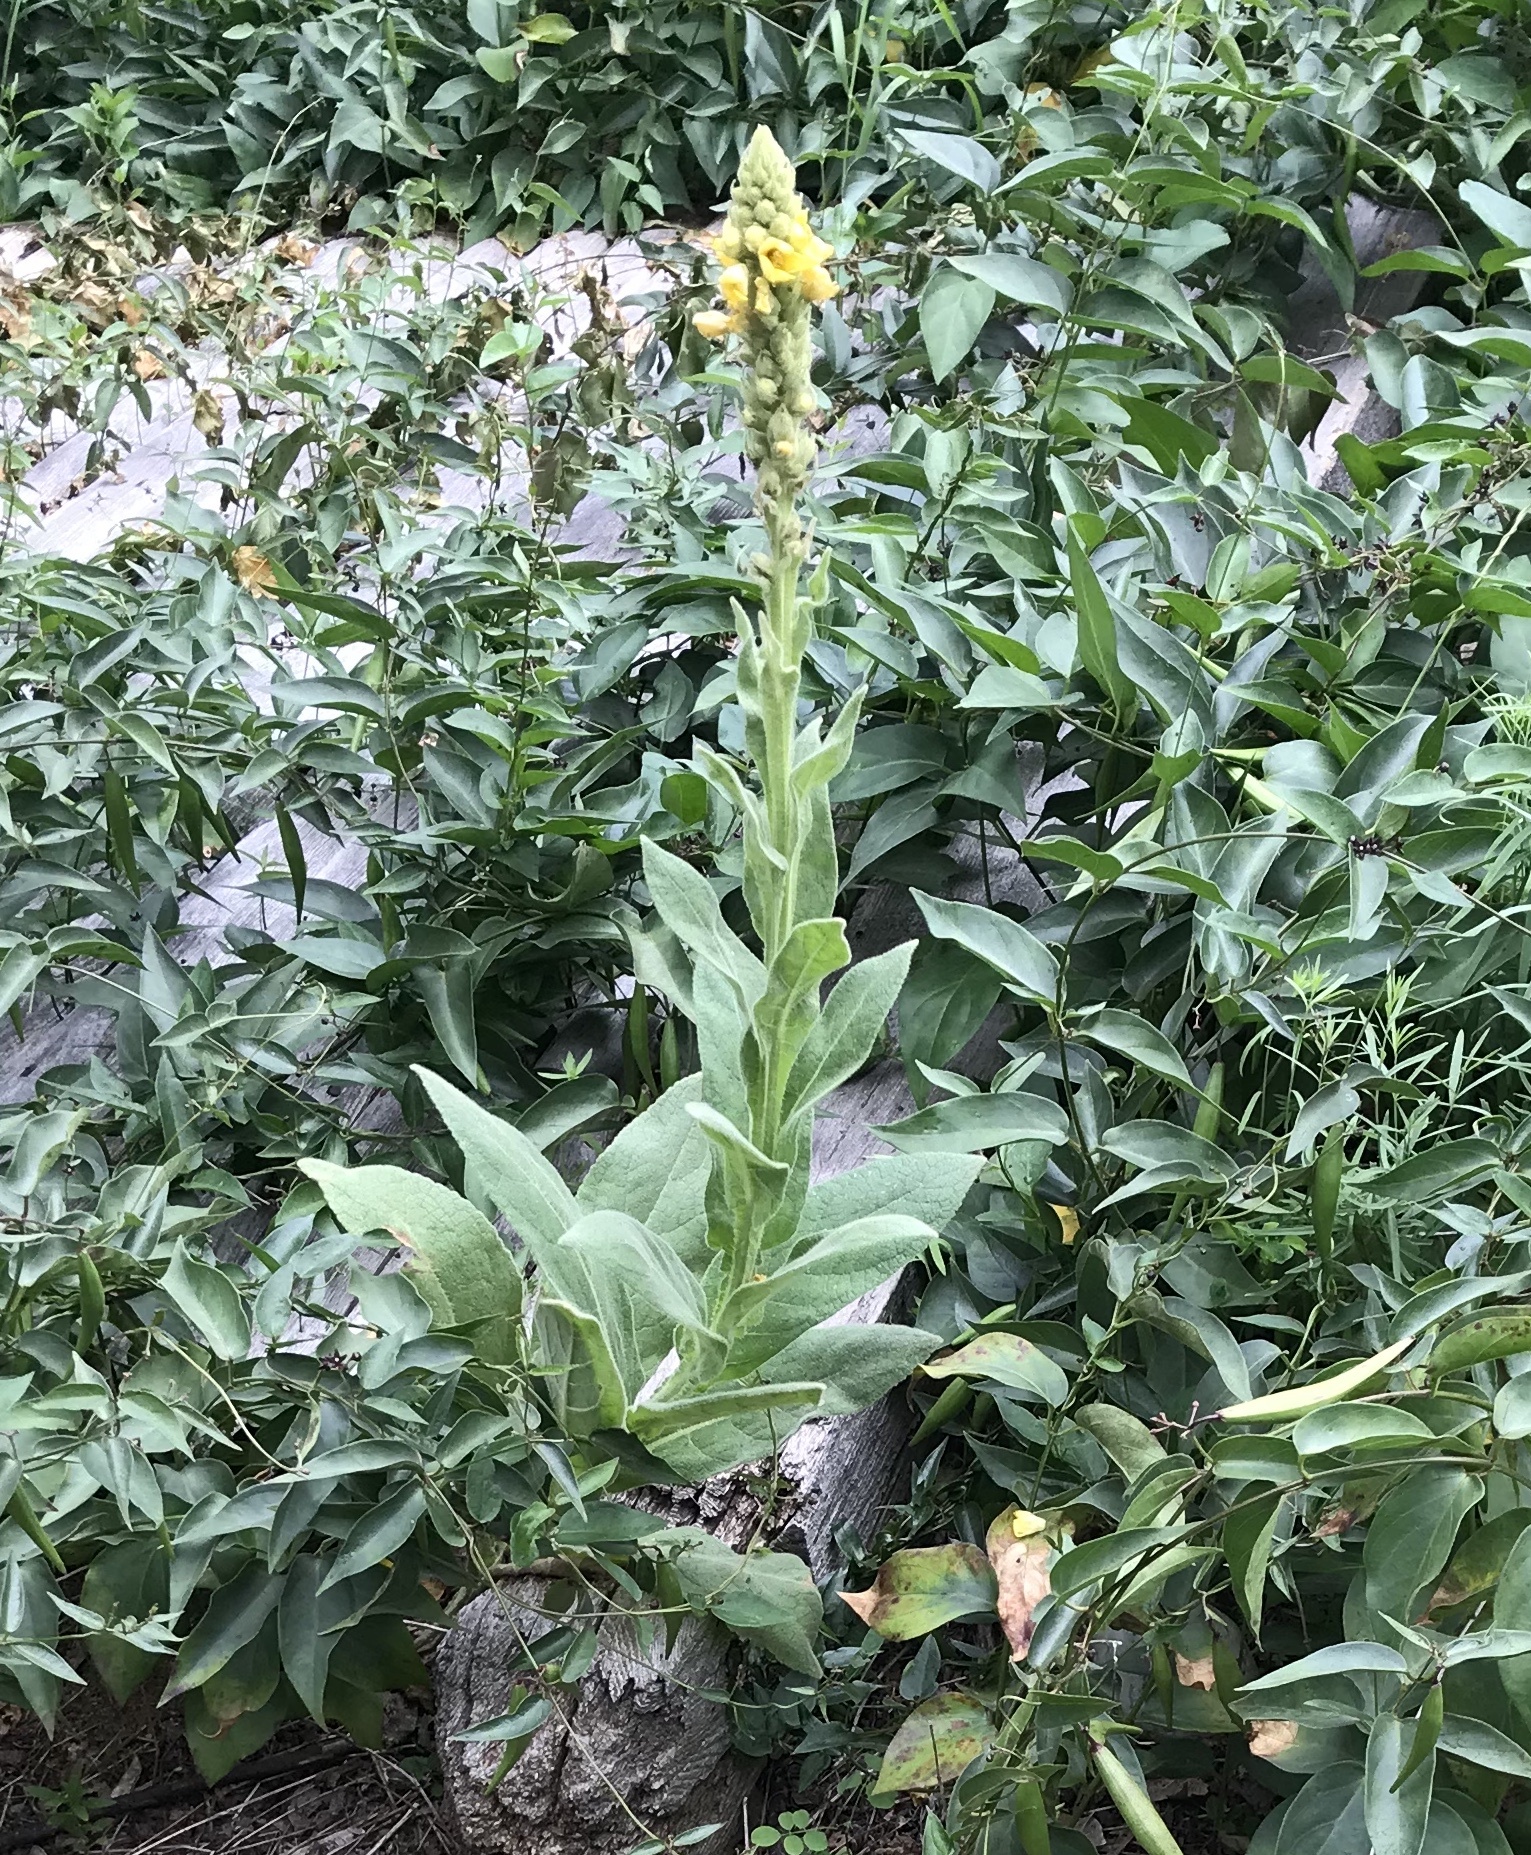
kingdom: Plantae
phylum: Tracheophyta
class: Magnoliopsida
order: Lamiales
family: Scrophulariaceae
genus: Verbascum
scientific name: Verbascum thapsus
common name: Common mullein
